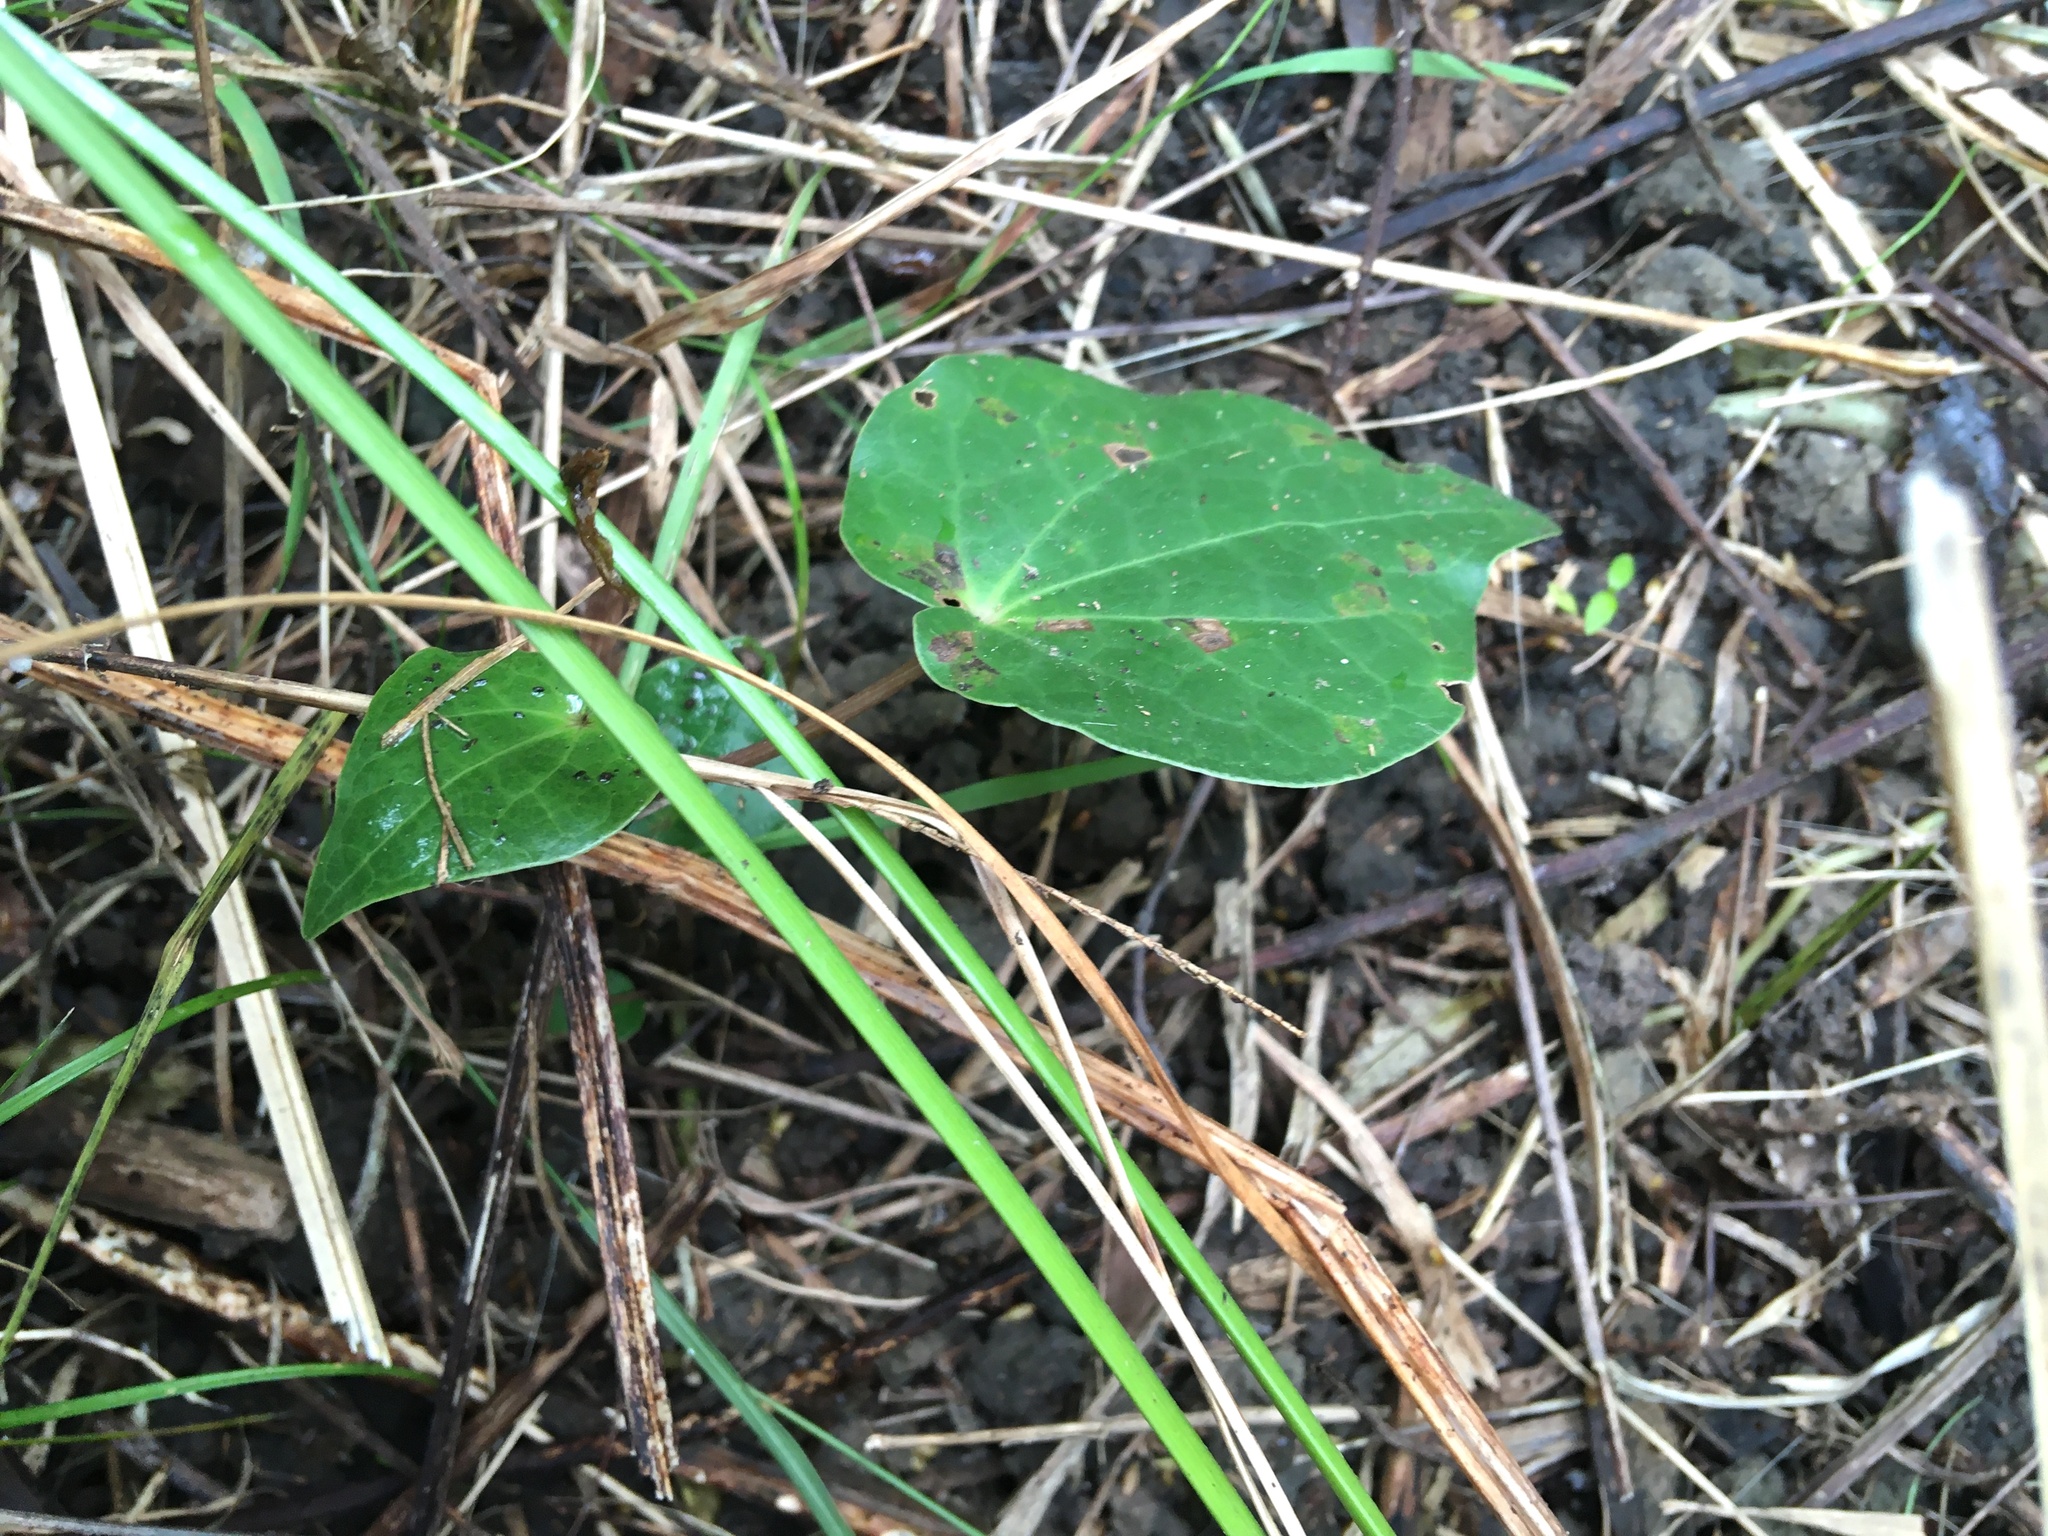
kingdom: Plantae
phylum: Tracheophyta
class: Magnoliopsida
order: Piperales
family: Piperaceae
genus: Macropiper
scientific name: Macropiper excelsum
